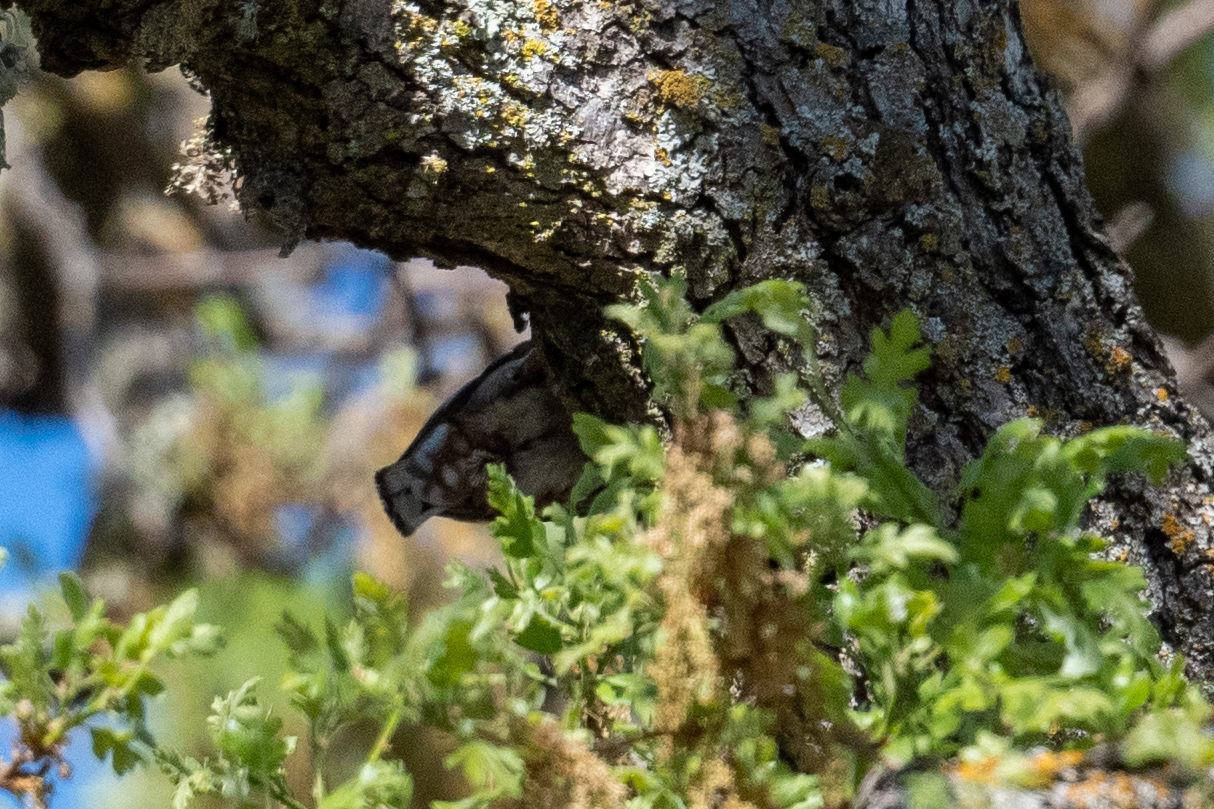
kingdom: Animalia
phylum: Chordata
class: Aves
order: Passeriformes
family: Sittidae
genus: Sitta
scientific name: Sitta carolinensis
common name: White-breasted nuthatch
